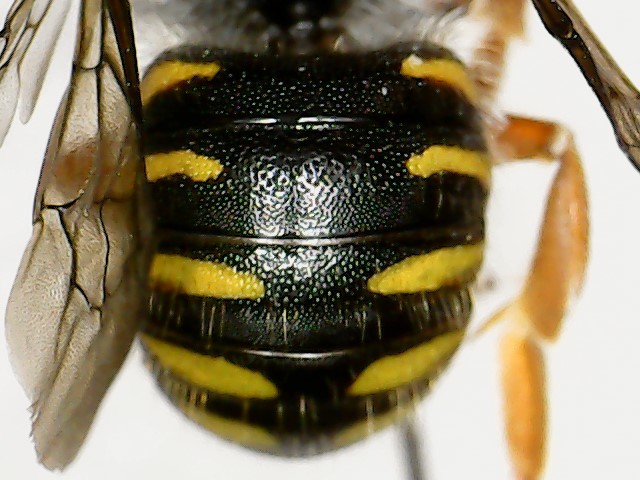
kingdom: Animalia
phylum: Arthropoda
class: Insecta
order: Hymenoptera
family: Megachilidae
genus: Anthidium
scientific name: Anthidium oblongatum
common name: Oblong wool carder bee
